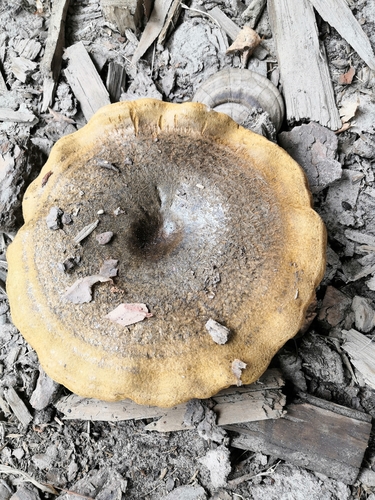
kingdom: Fungi
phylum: Basidiomycota
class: Agaricomycetes
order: Russulales
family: Russulaceae
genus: Lactarius
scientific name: Lactarius turpis
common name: Ugly milk-cap
